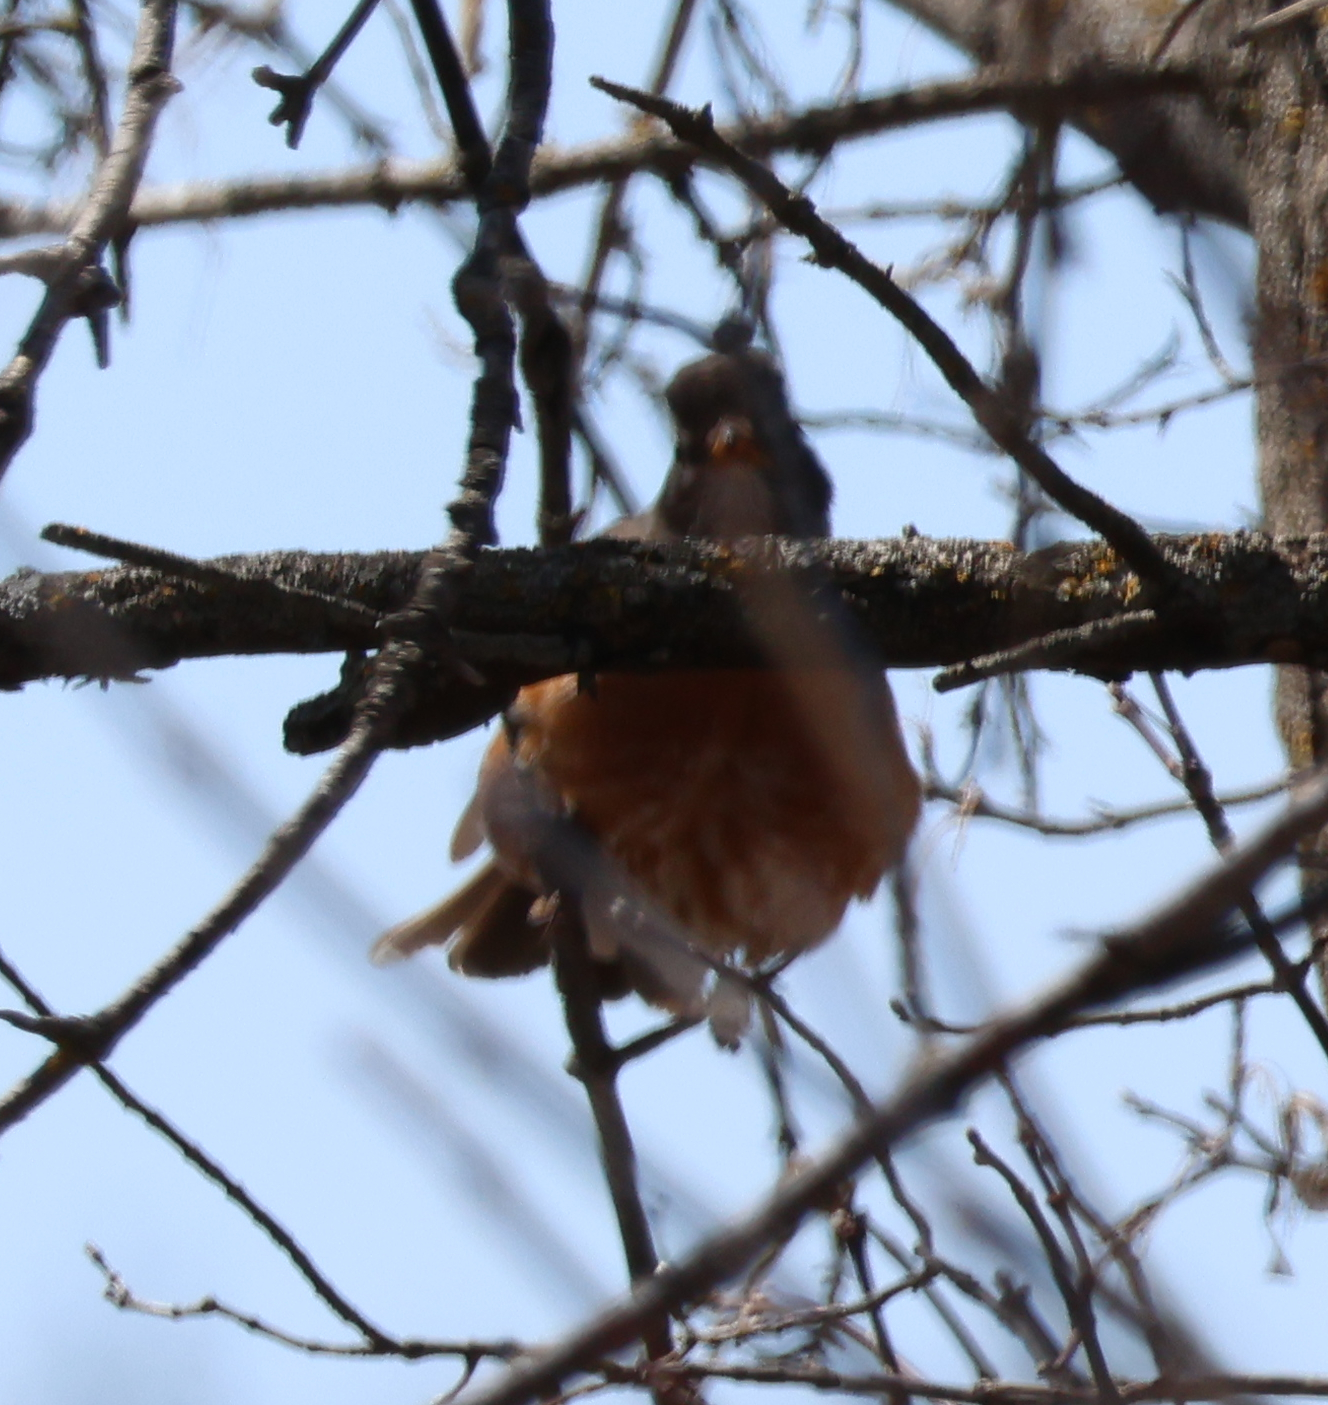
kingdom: Animalia
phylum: Chordata
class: Aves
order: Passeriformes
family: Turdidae
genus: Turdus
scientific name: Turdus migratorius
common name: American robin
